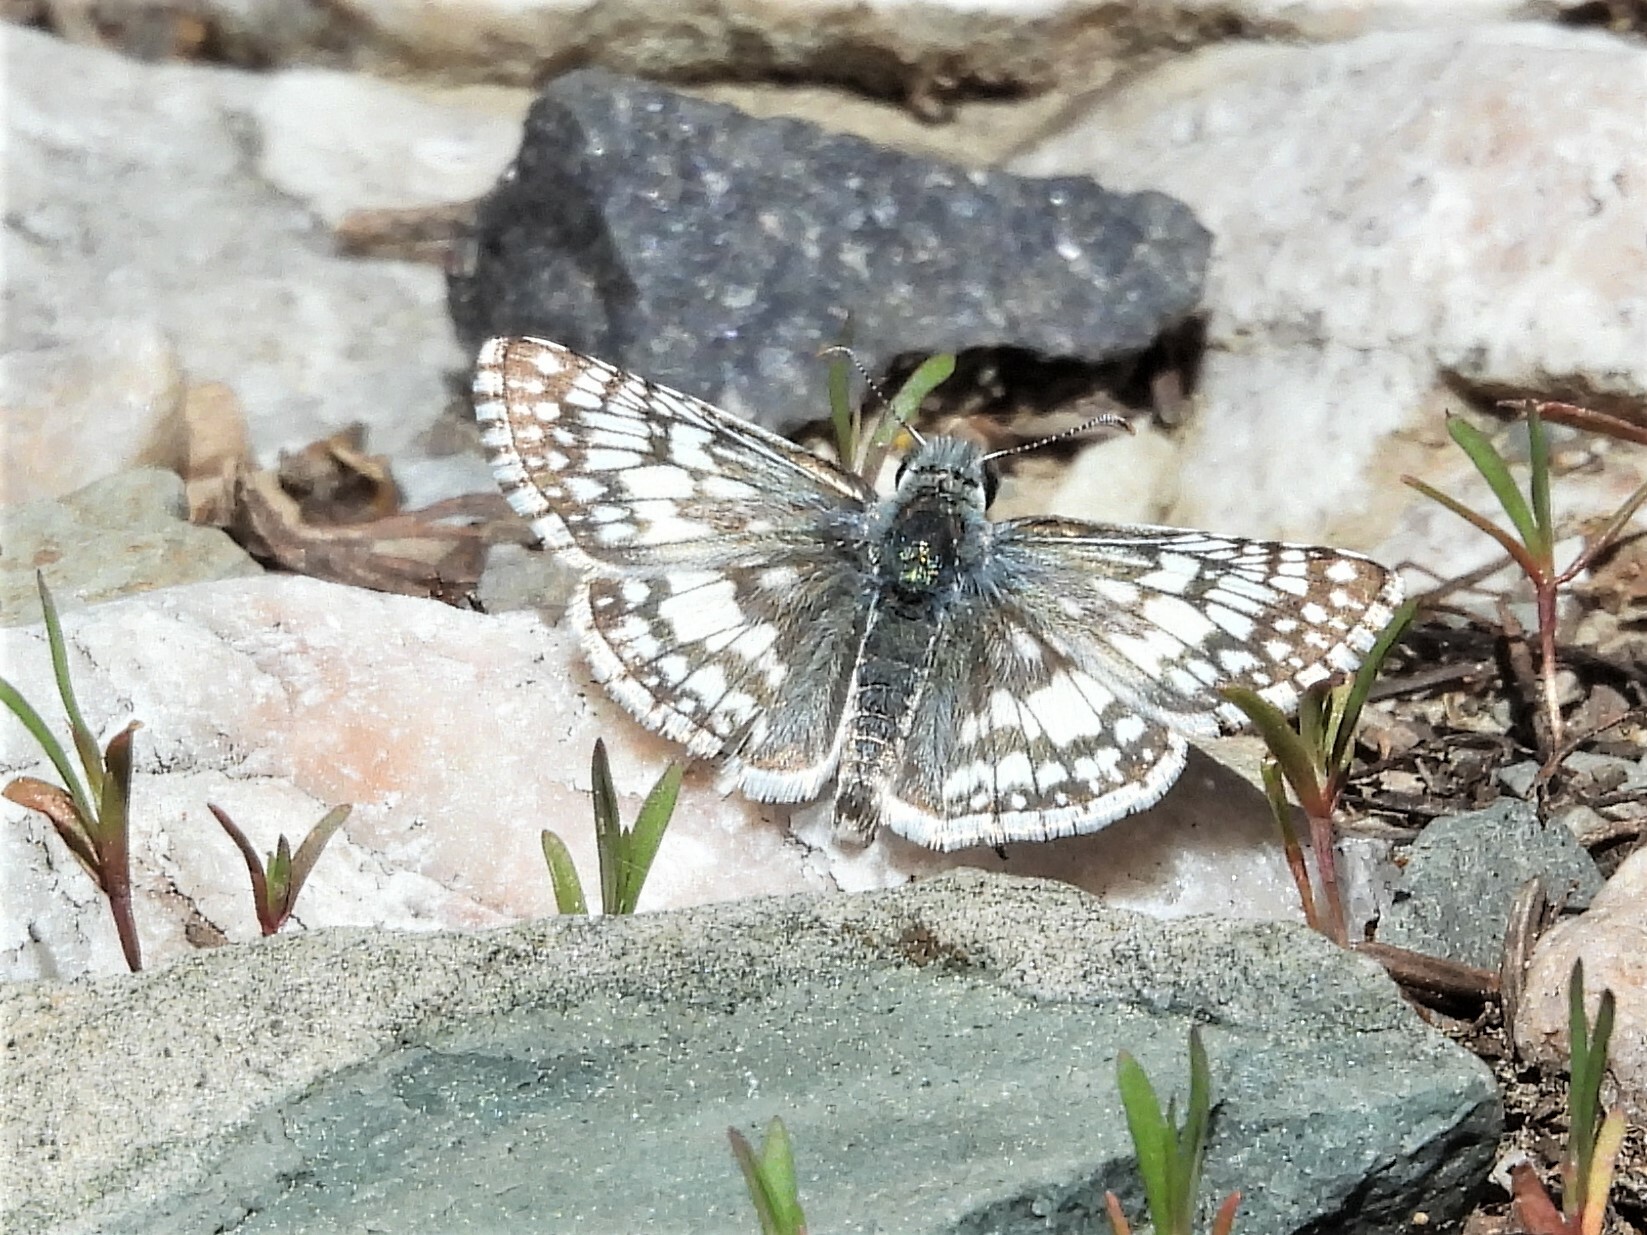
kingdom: Animalia
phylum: Arthropoda
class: Insecta
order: Lepidoptera
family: Hesperiidae
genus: Burnsius
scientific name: Burnsius communis
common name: Common checkered-skipper
